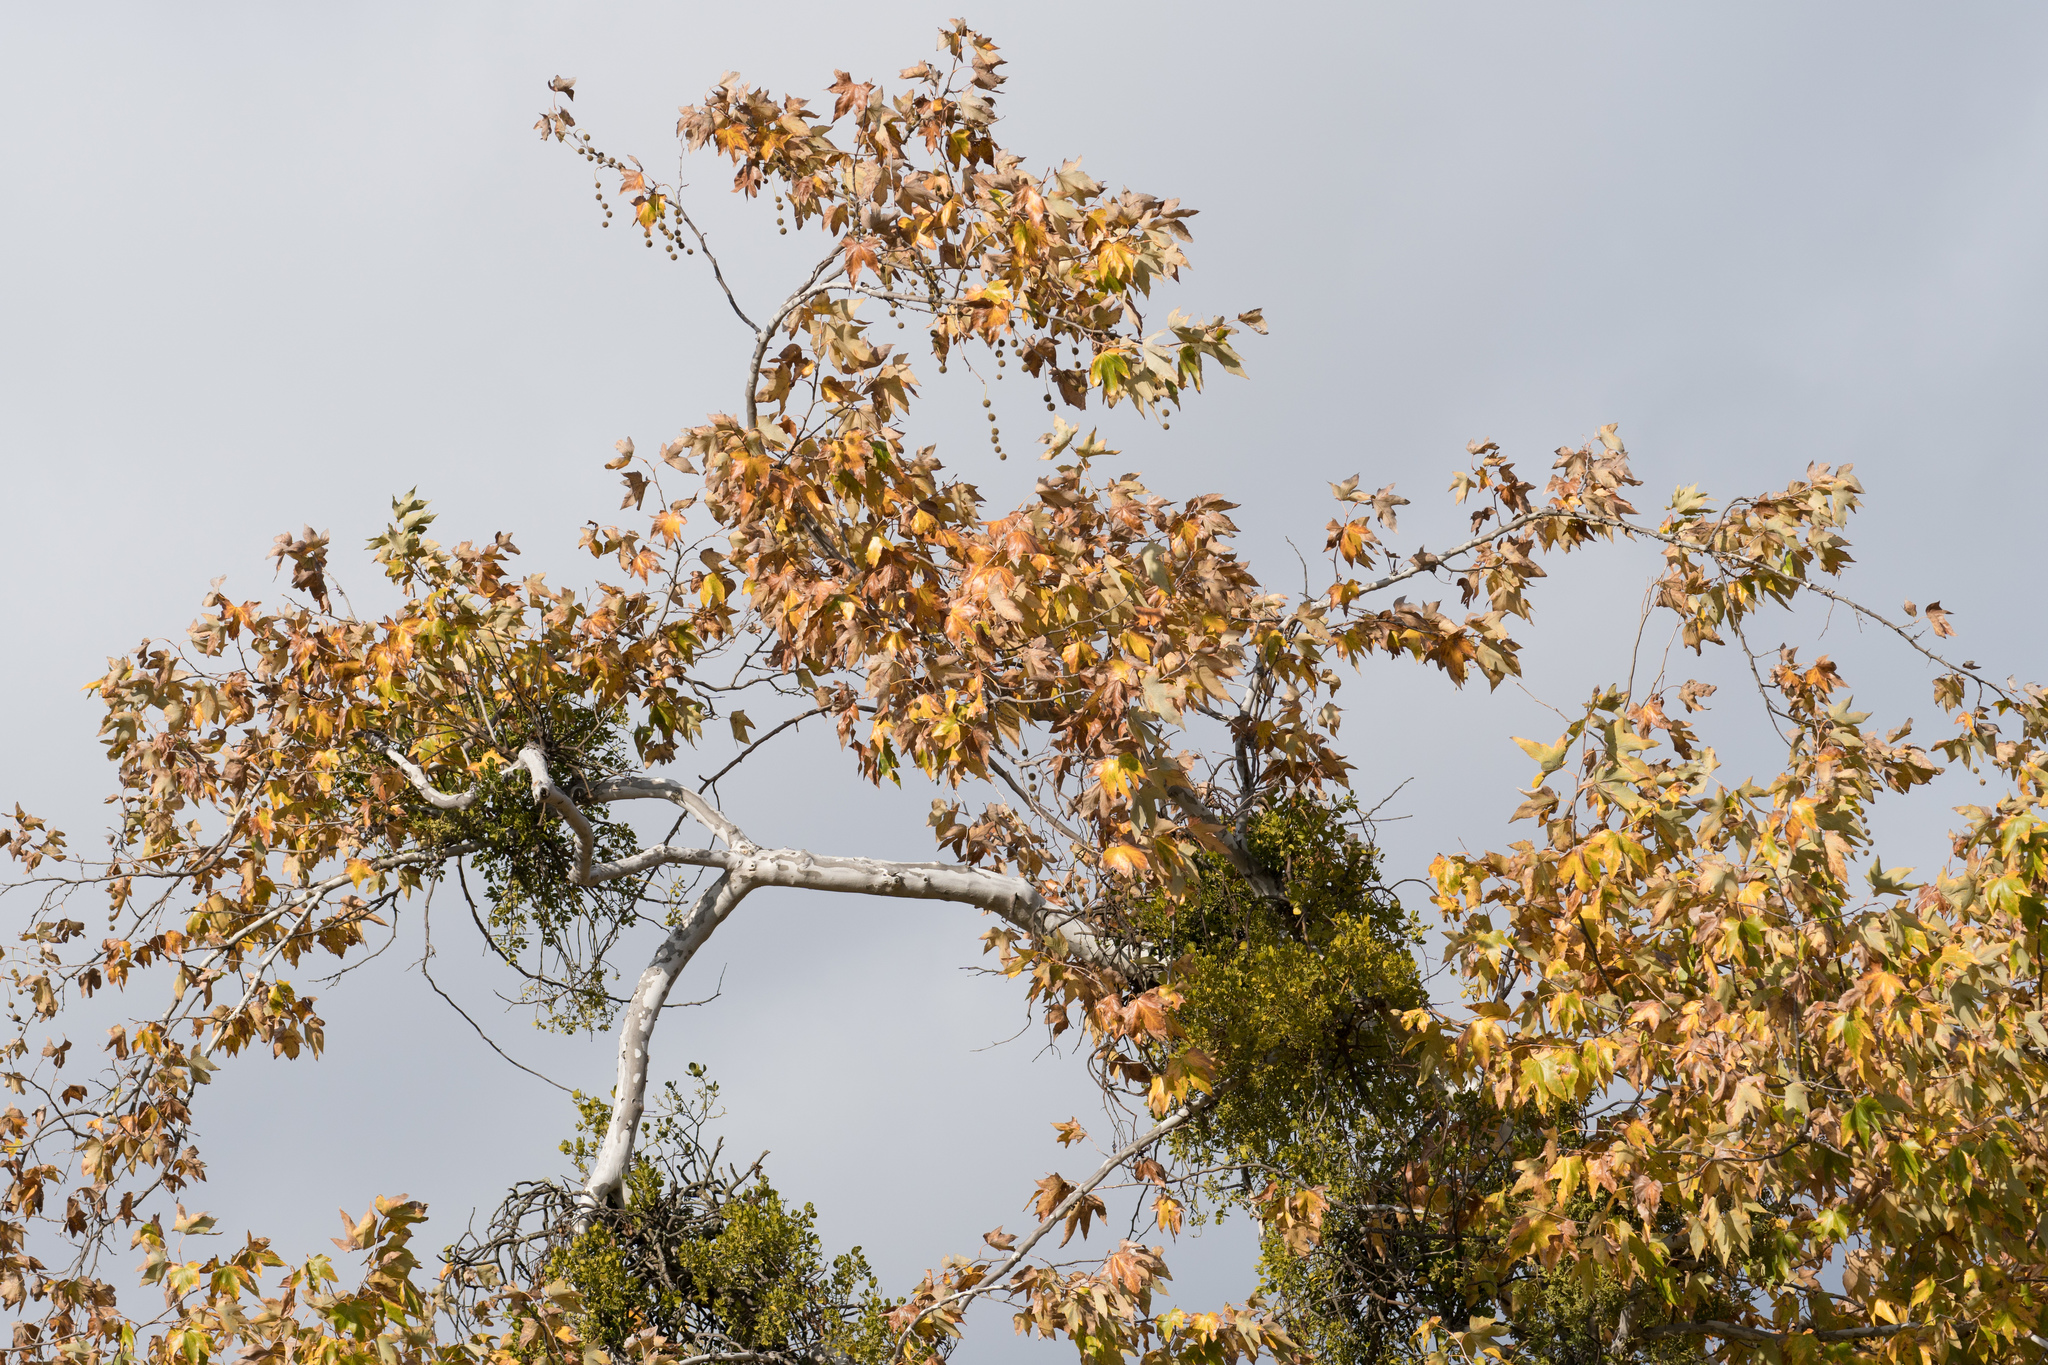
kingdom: Plantae
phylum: Tracheophyta
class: Magnoliopsida
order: Proteales
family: Platanaceae
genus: Platanus
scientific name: Platanus racemosa
